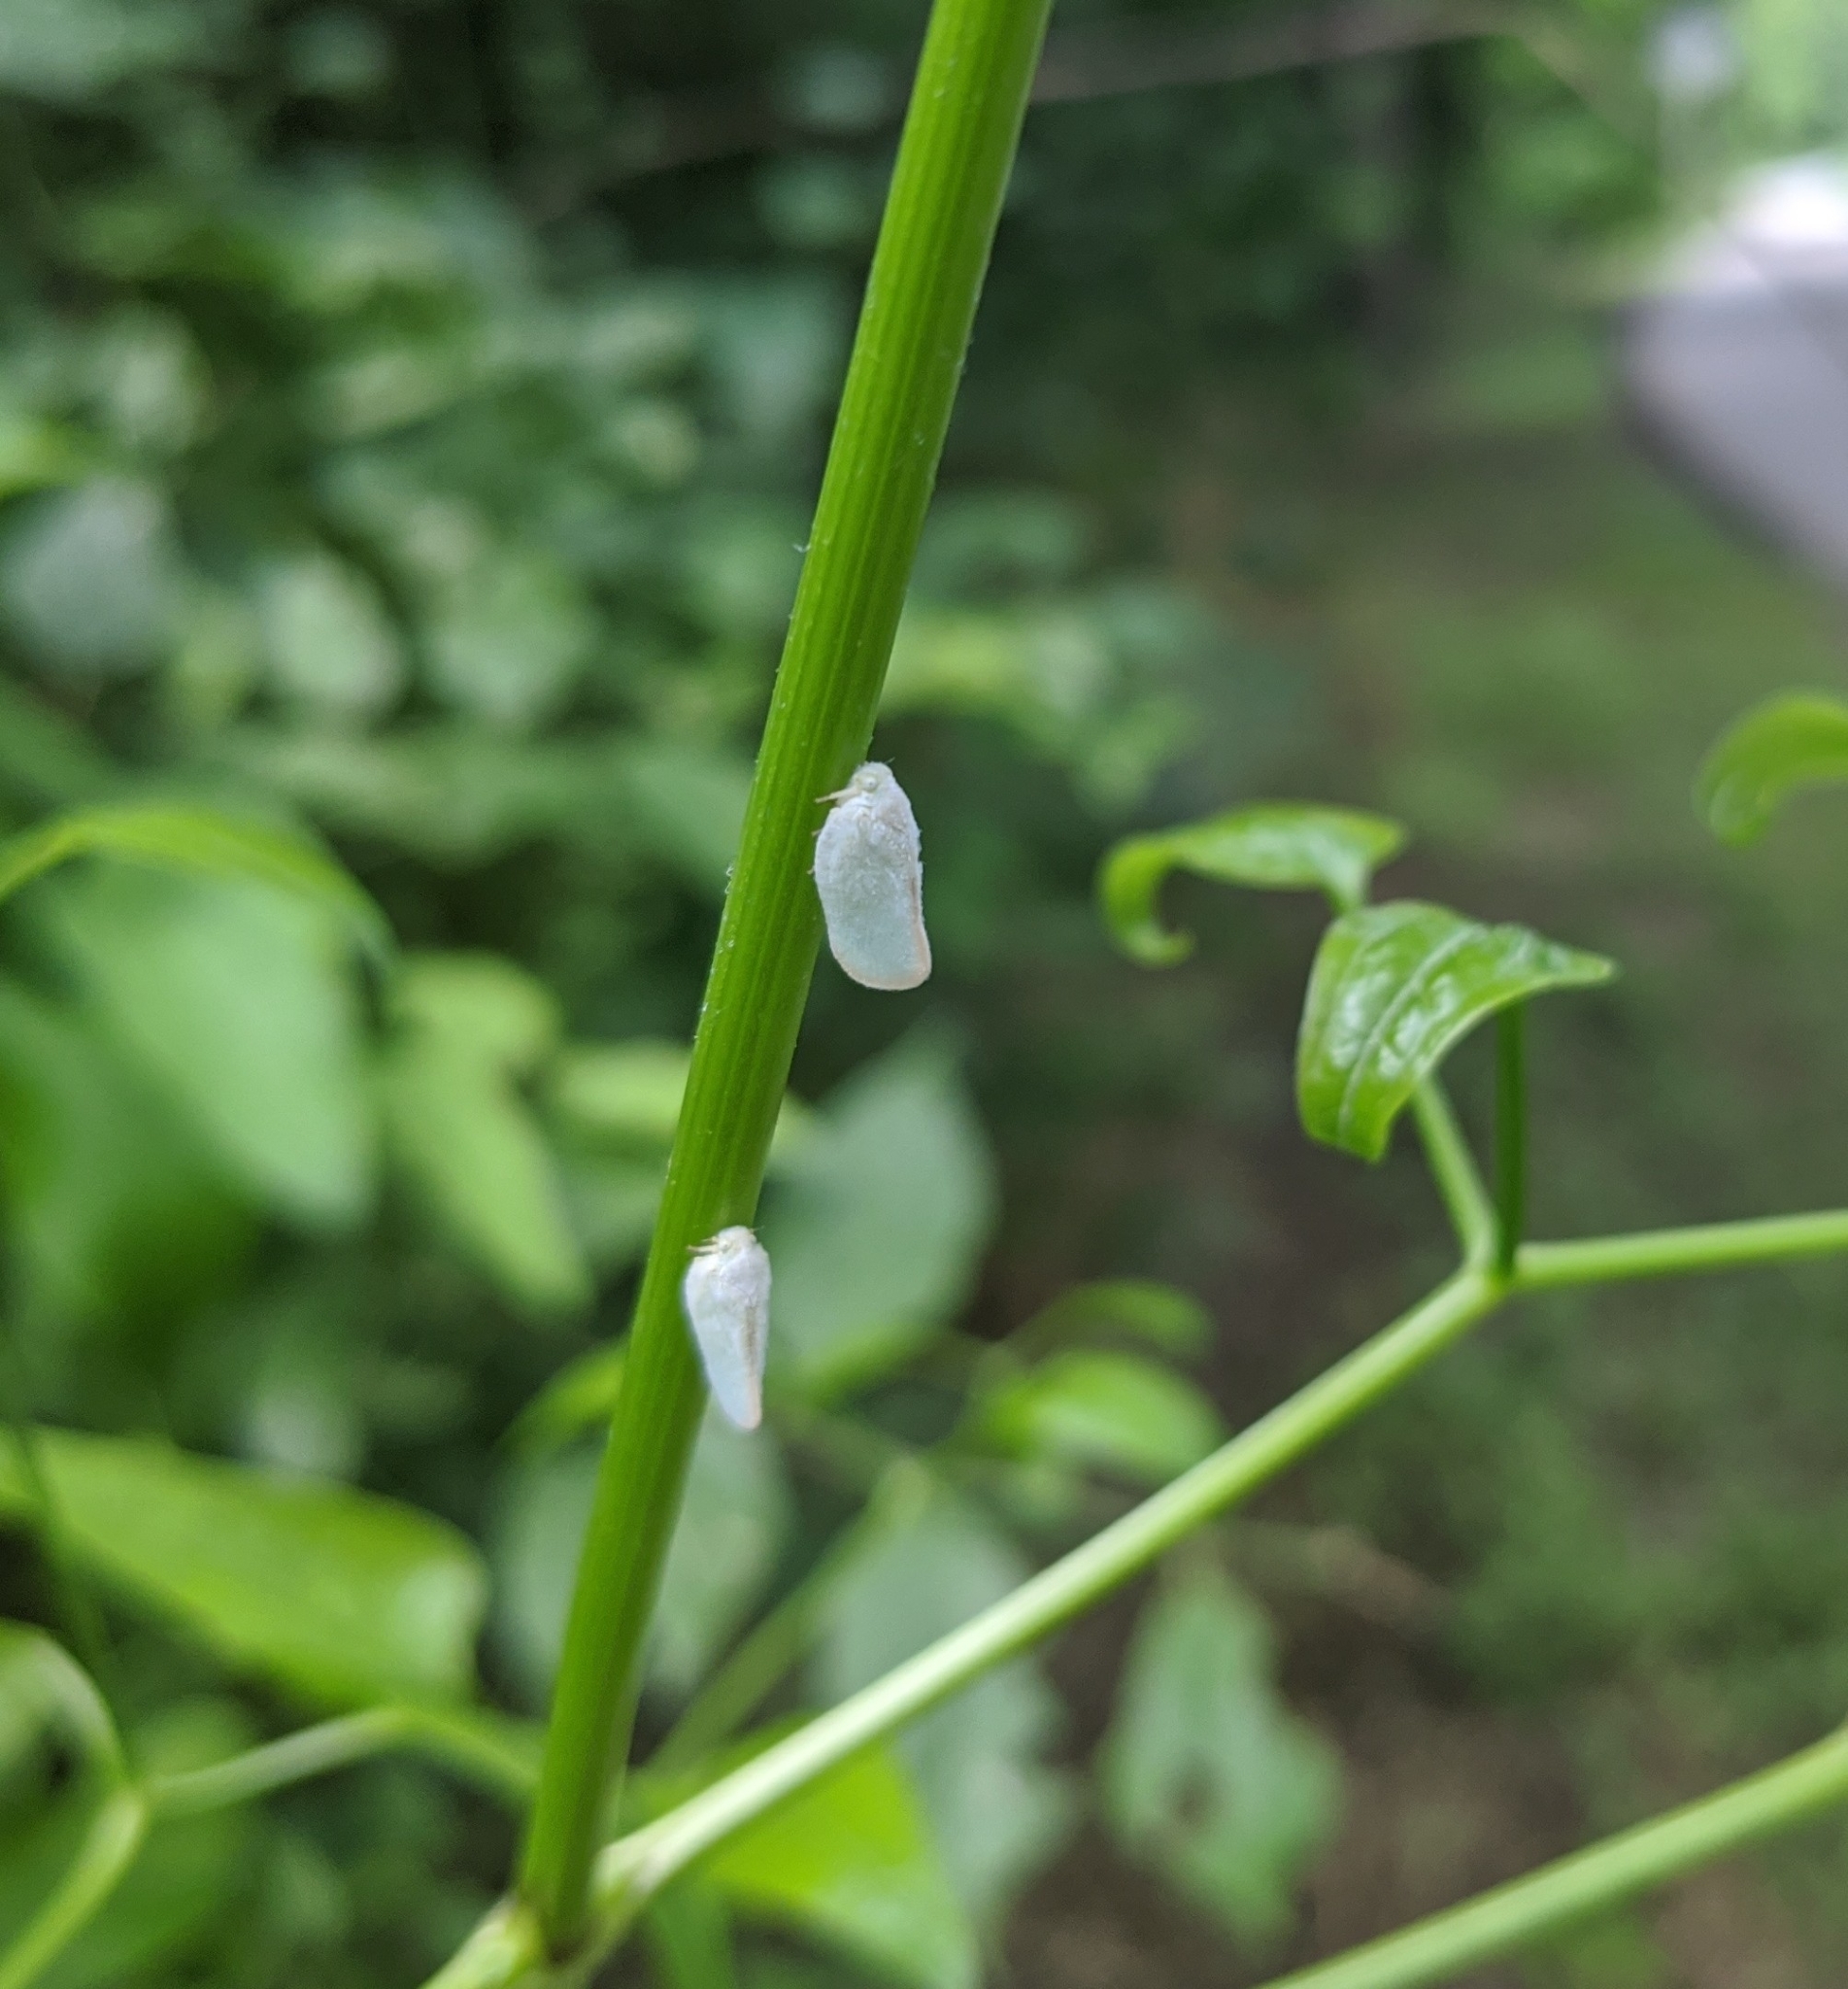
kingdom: Animalia
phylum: Arthropoda
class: Insecta
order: Hemiptera
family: Flatidae
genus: Ormenoides
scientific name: Ormenoides venusta
